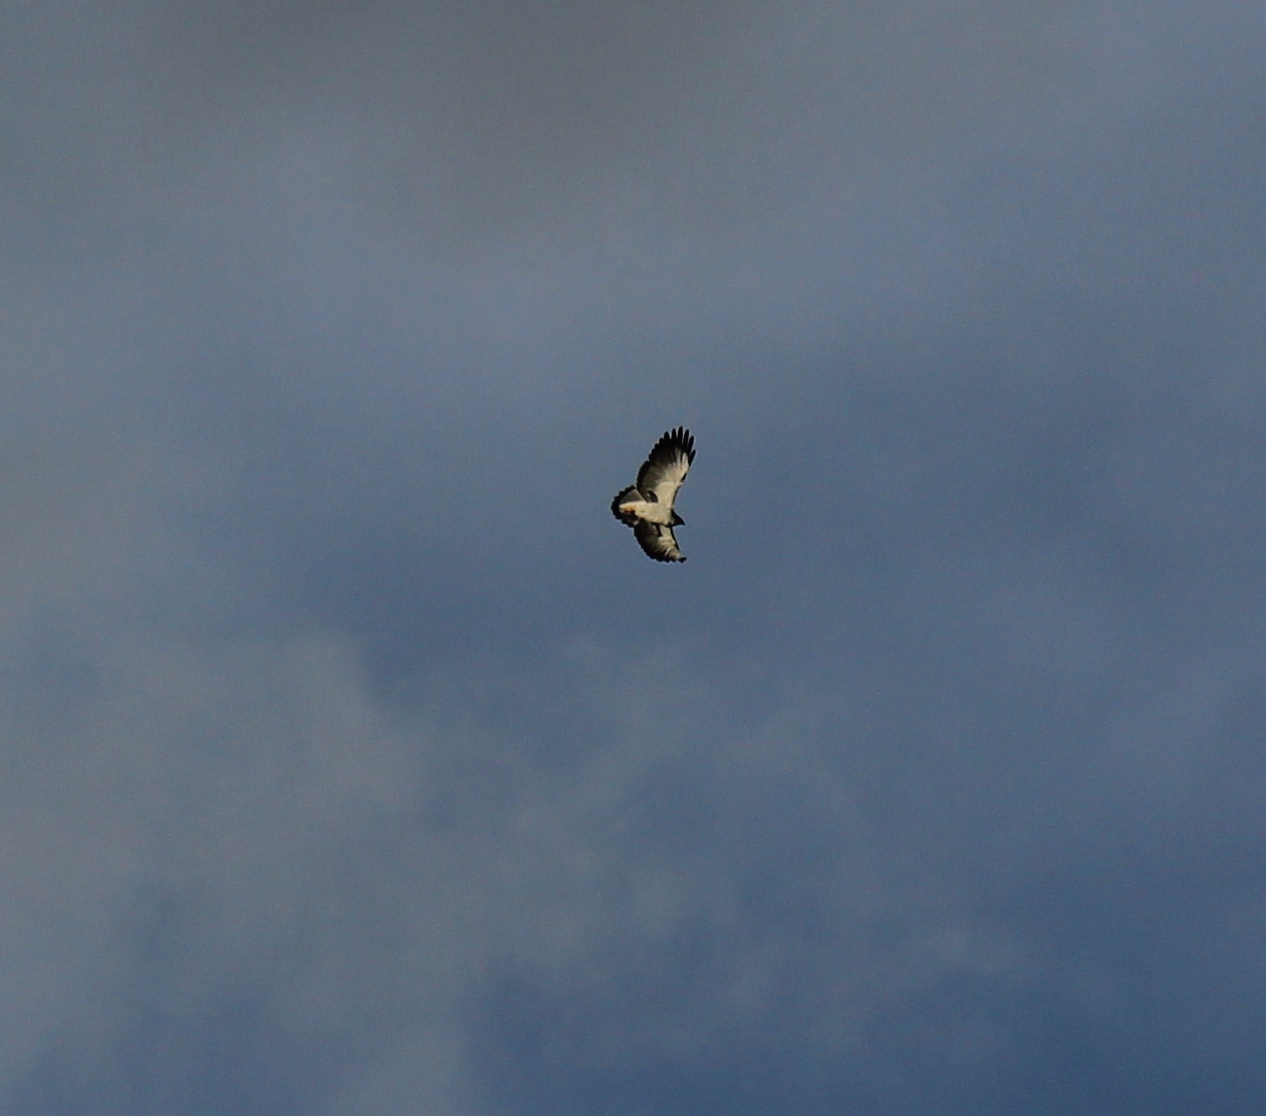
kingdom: Animalia
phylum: Chordata
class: Aves
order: Accipitriformes
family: Accipitridae
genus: Buteo
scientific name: Buteo polyosoma
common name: Variable hawk
